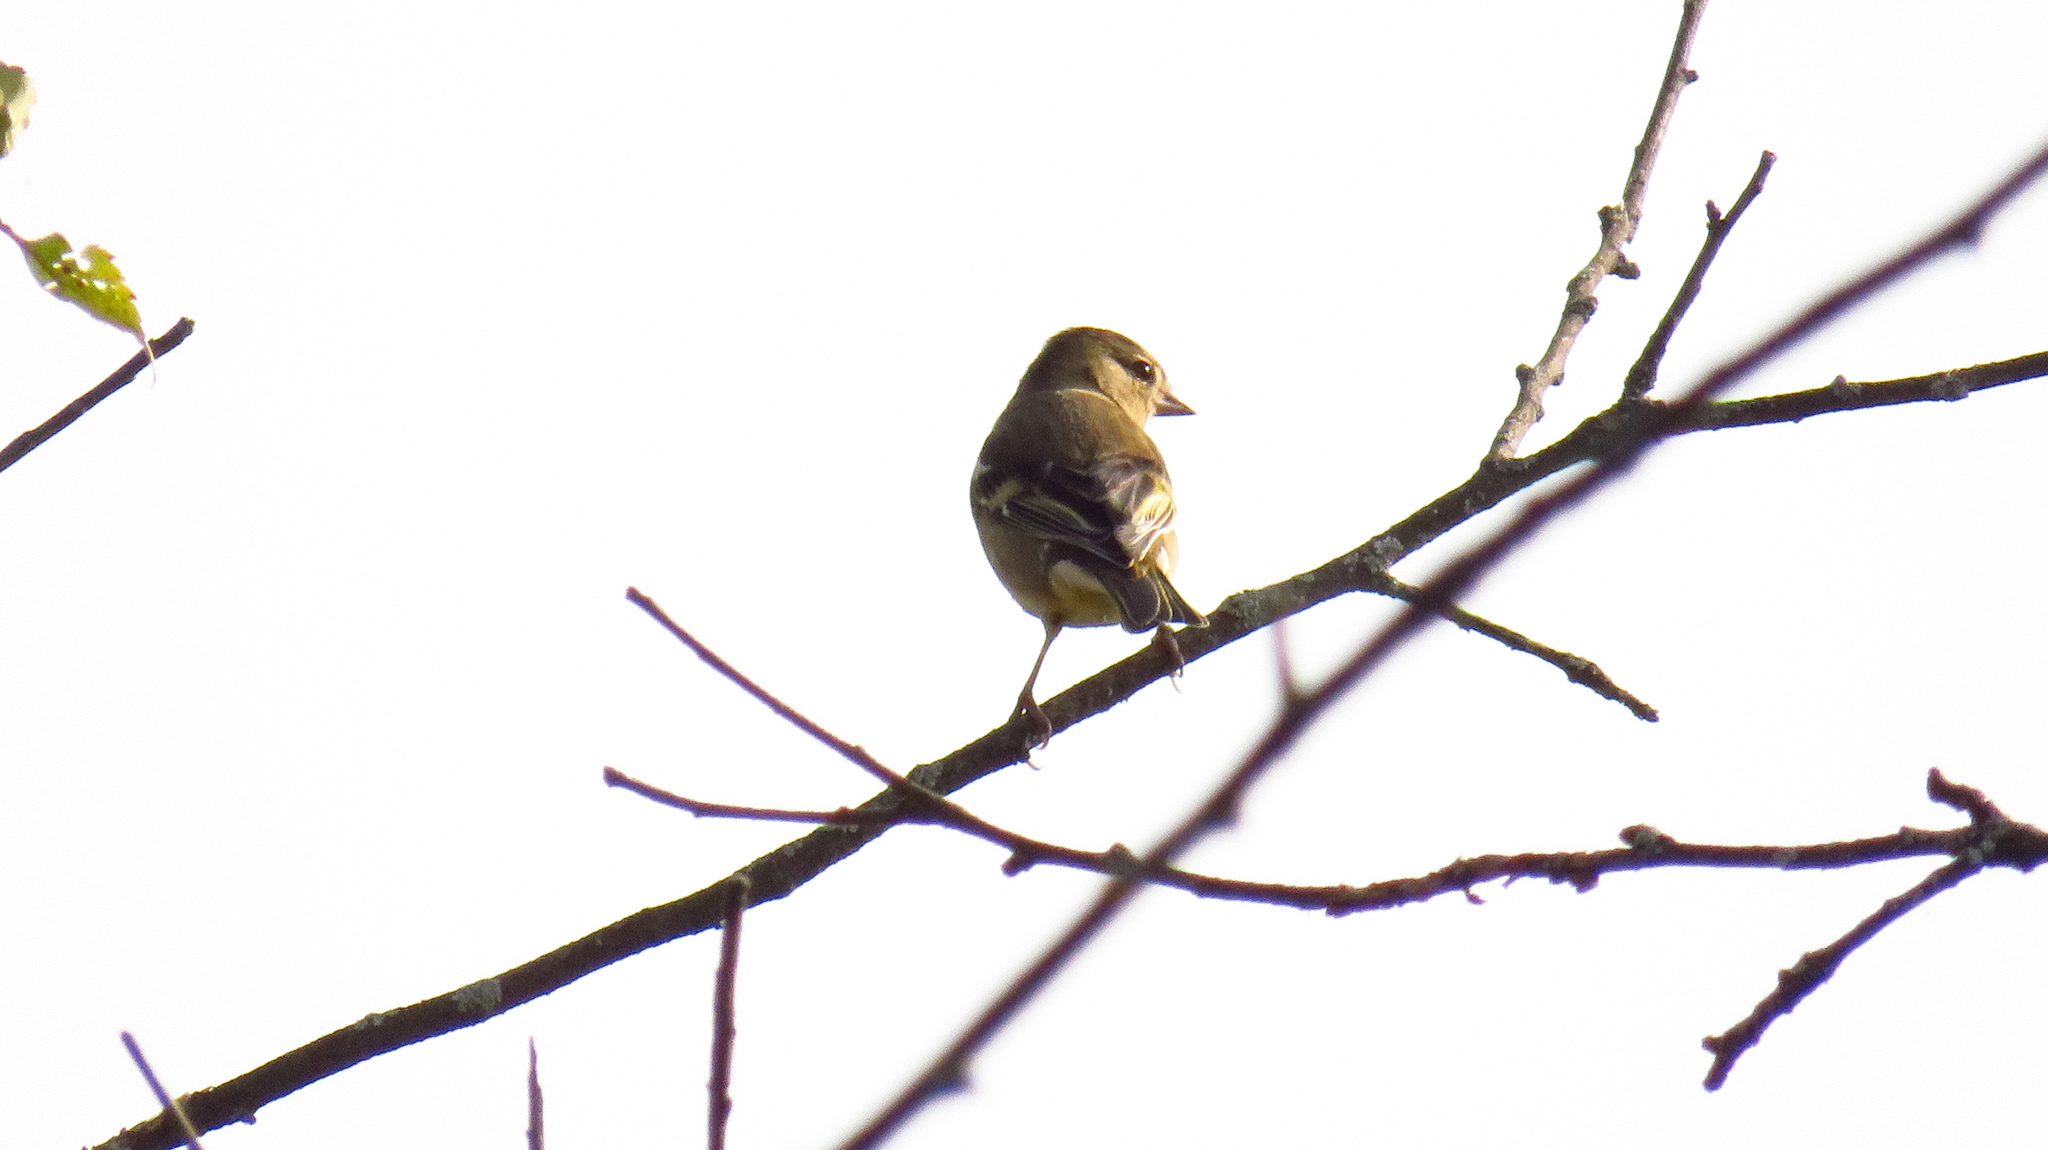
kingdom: Animalia
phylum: Chordata
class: Aves
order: Passeriformes
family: Fringillidae
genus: Fringilla
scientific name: Fringilla coelebs
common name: Common chaffinch
